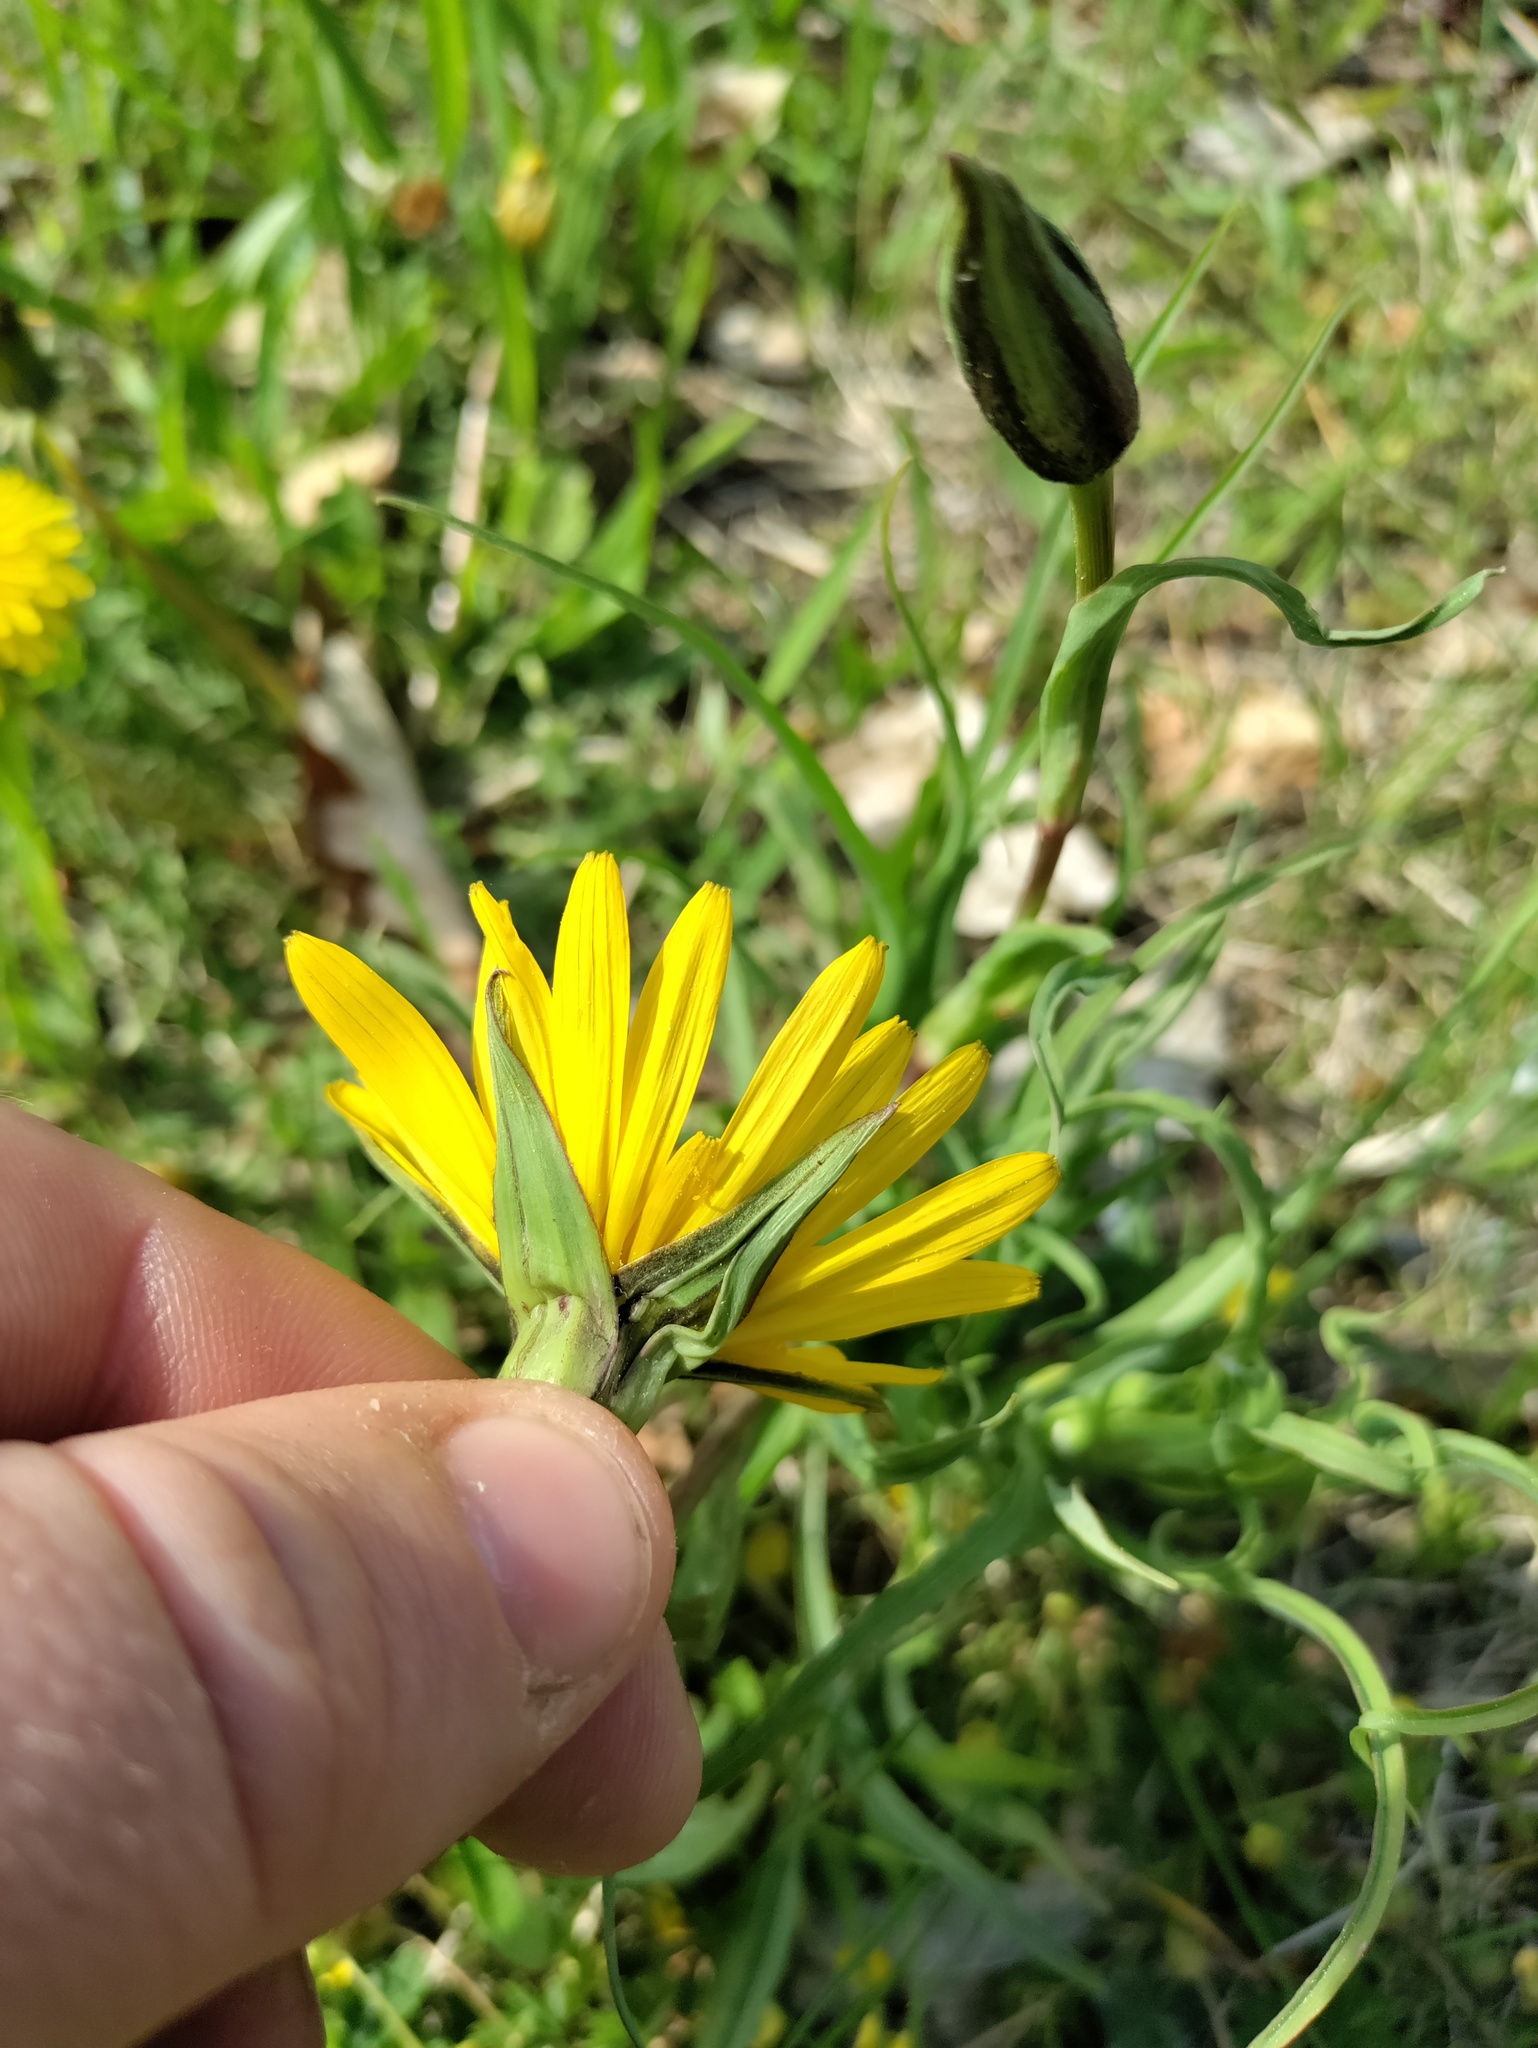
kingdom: Plantae
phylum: Tracheophyta
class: Magnoliopsida
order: Asterales
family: Asteraceae
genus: Tragopogon
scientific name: Tragopogon orientalis
